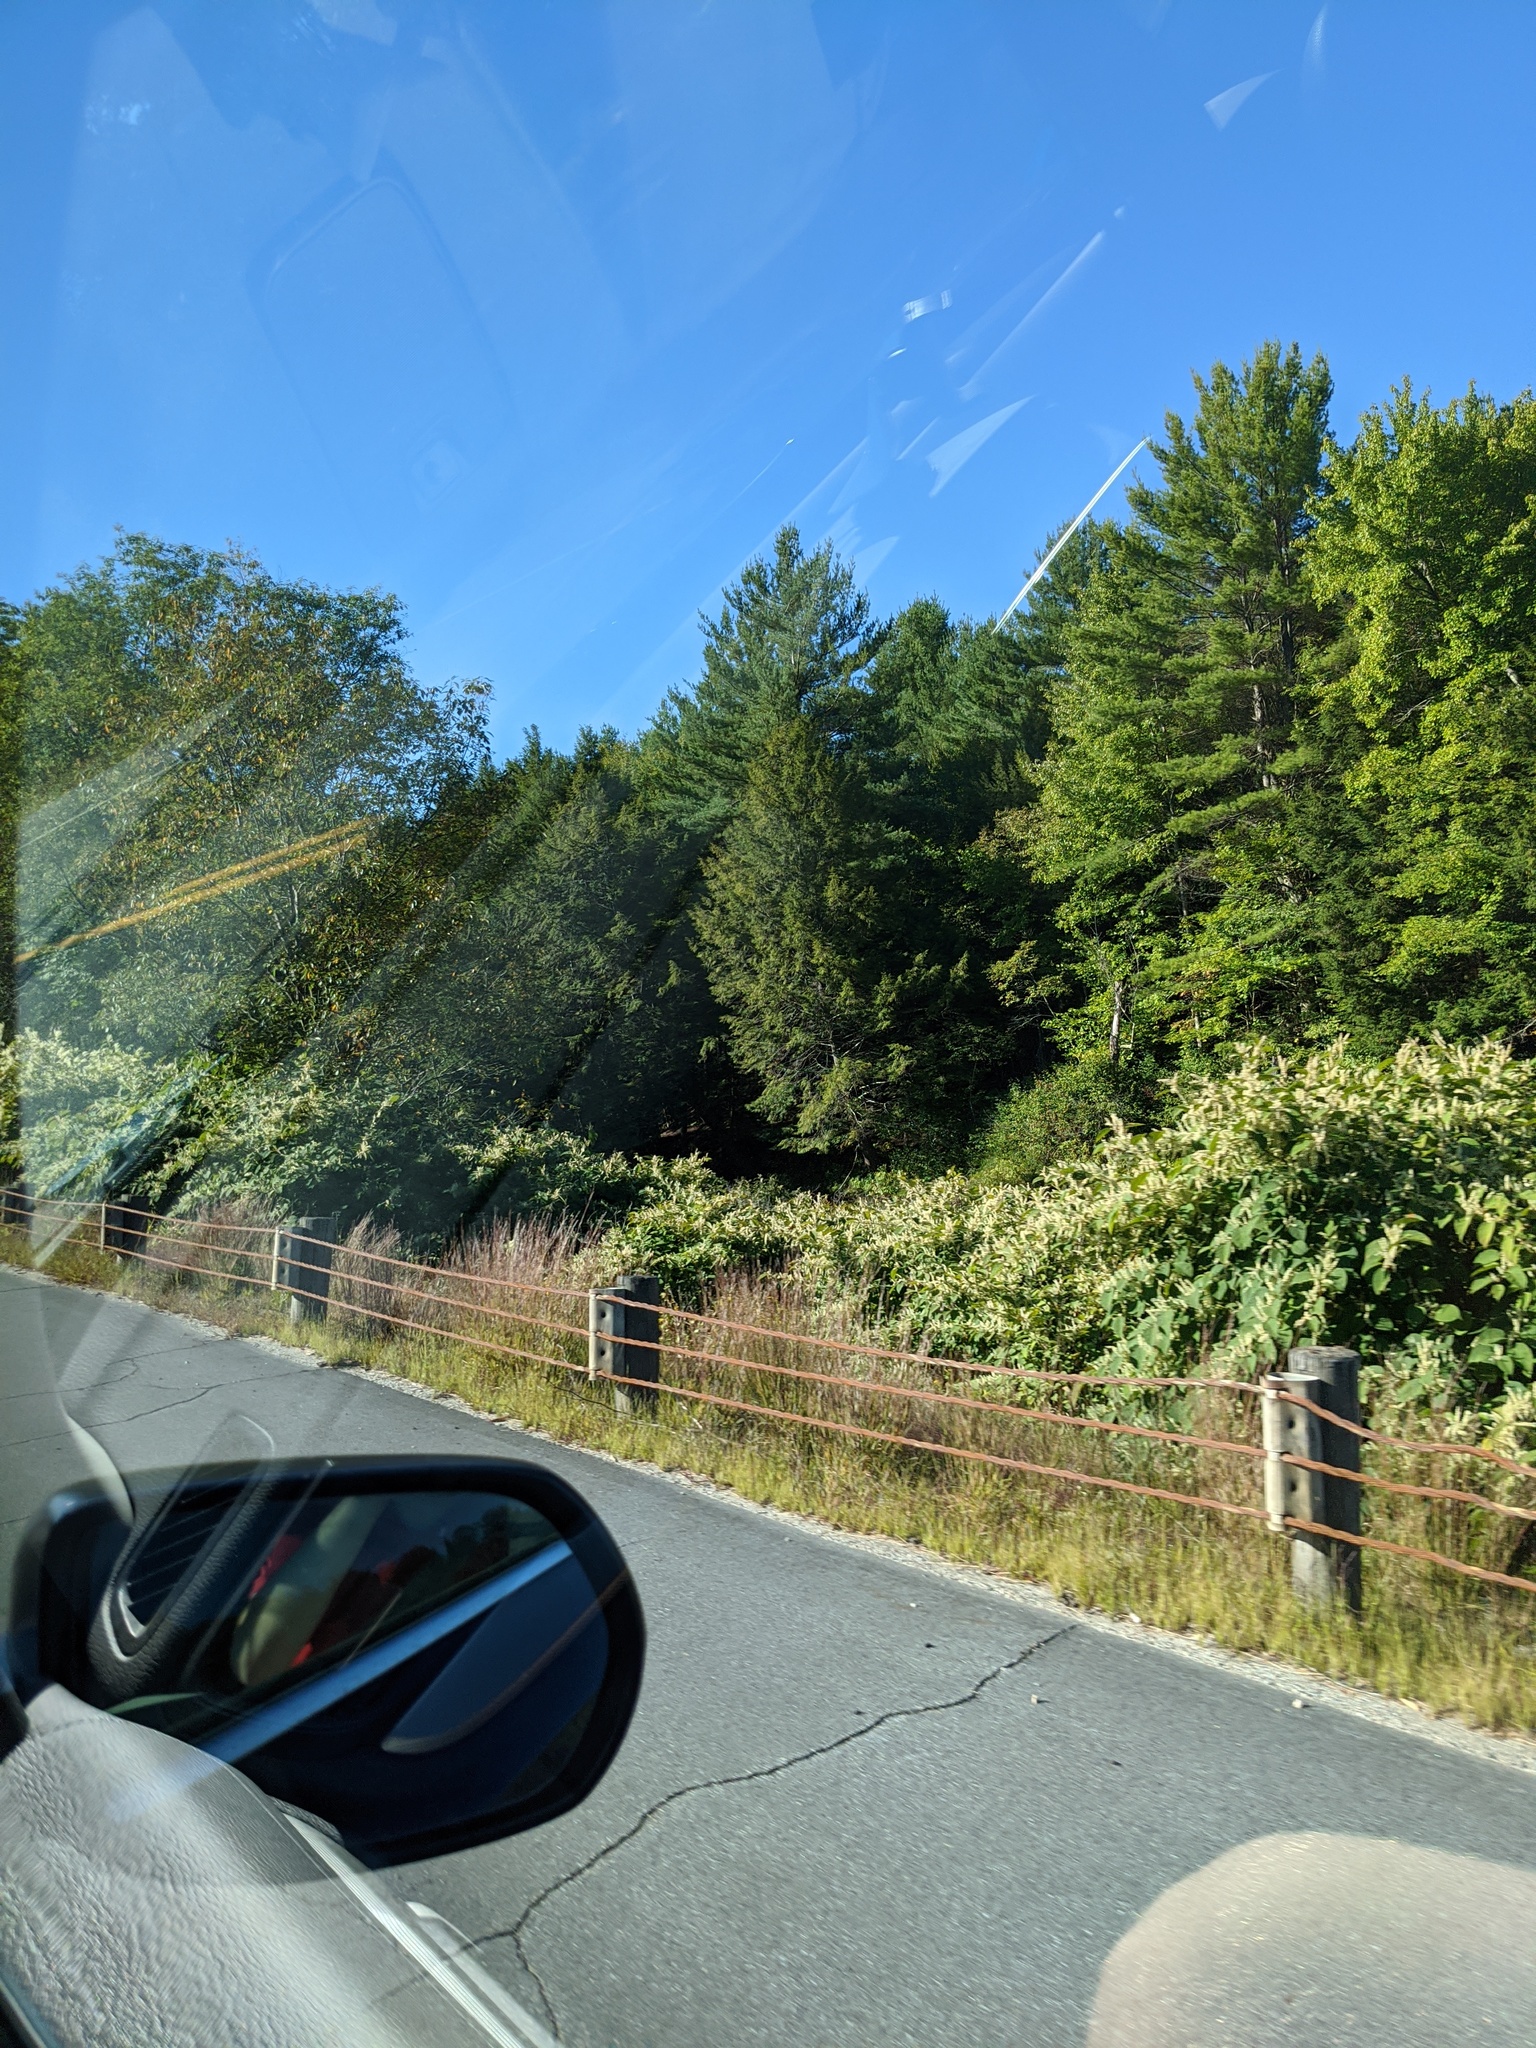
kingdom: Plantae
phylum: Tracheophyta
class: Magnoliopsida
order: Caryophyllales
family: Polygonaceae
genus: Reynoutria
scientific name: Reynoutria japonica
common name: Japanese knotweed
